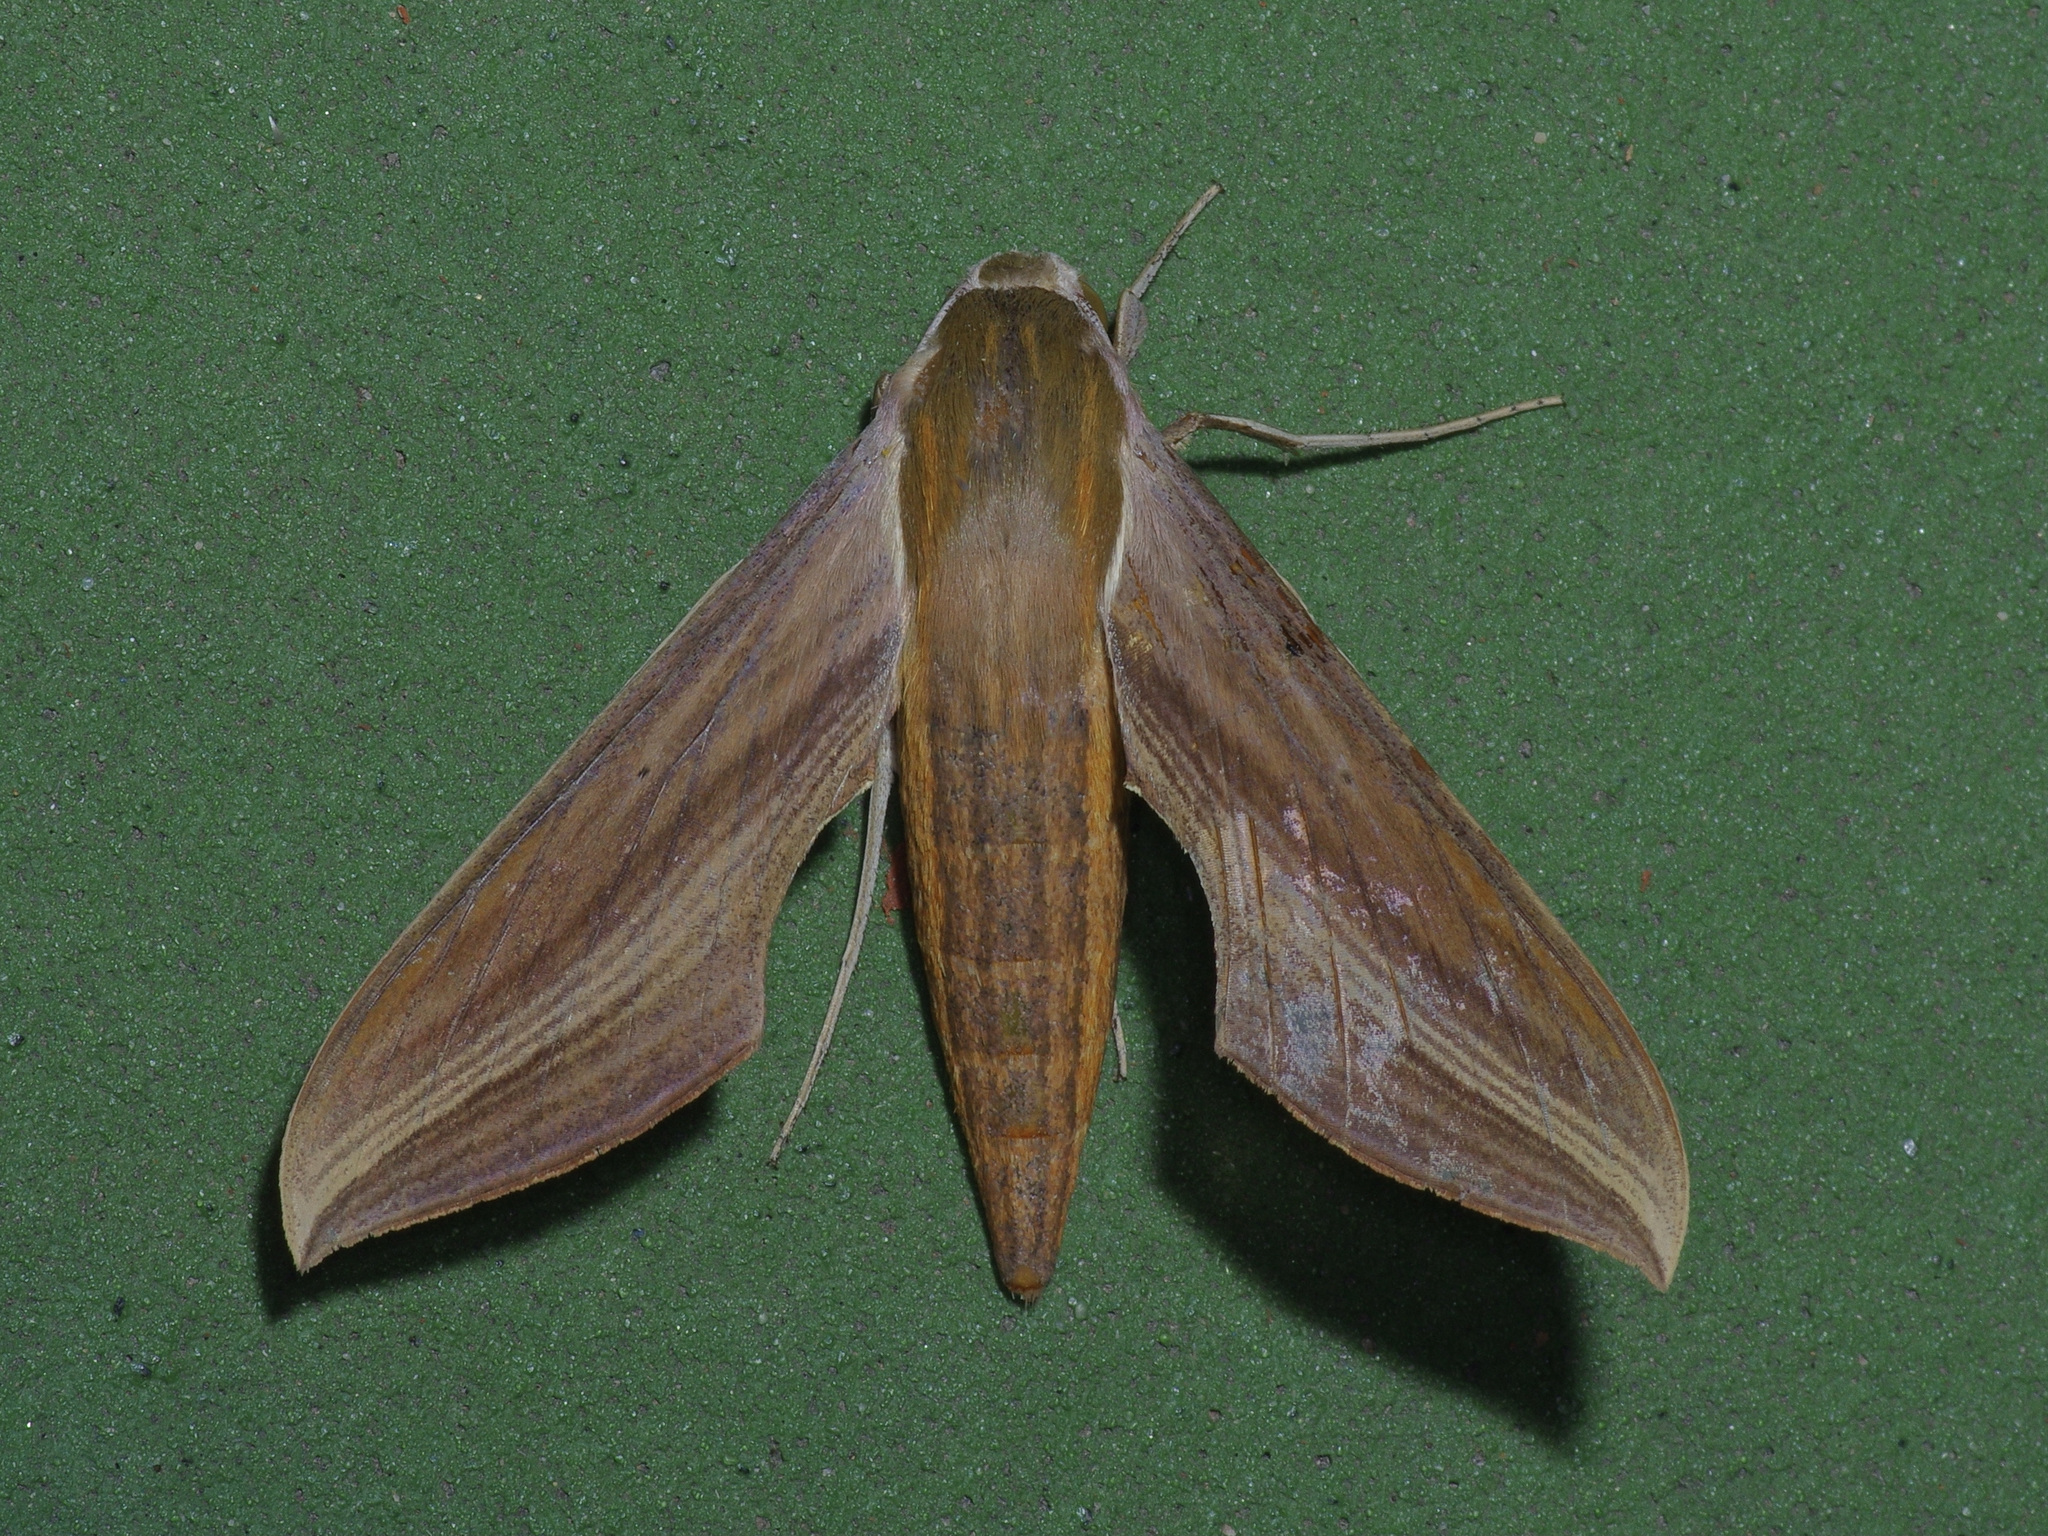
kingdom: Animalia
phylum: Arthropoda
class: Insecta
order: Lepidoptera
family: Sphingidae
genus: Xylophanes
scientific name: Xylophanes tersa
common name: Tersa sphinx
